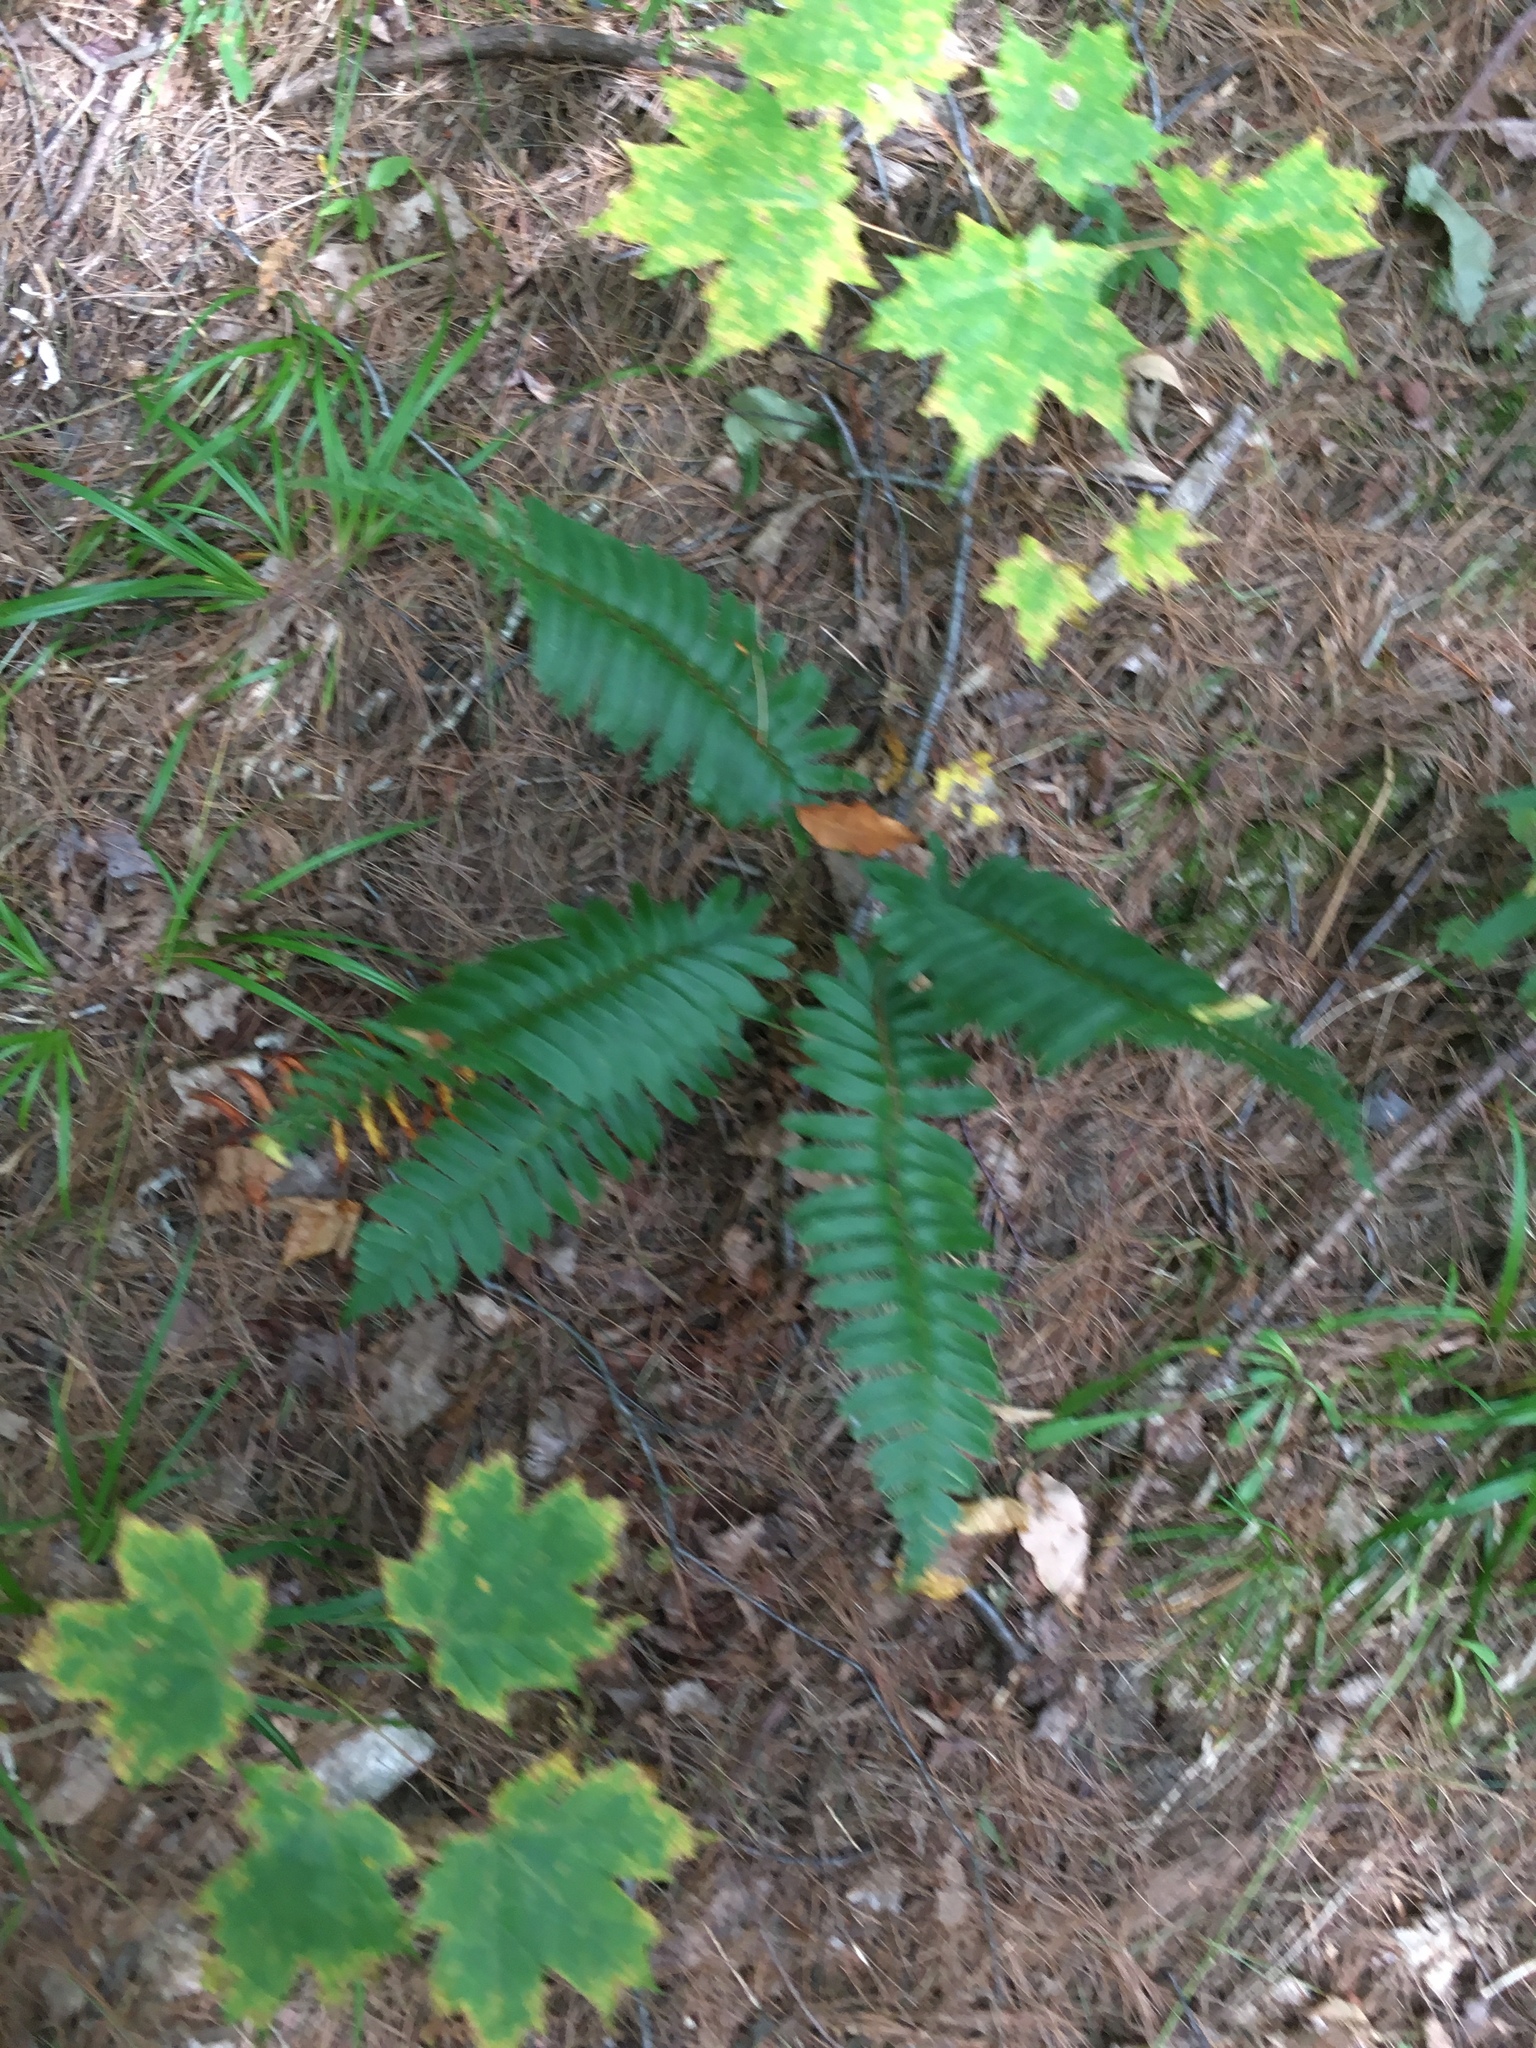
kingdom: Plantae
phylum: Tracheophyta
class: Polypodiopsida
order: Polypodiales
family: Dryopteridaceae
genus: Polystichum
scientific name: Polystichum acrostichoides
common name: Christmas fern
